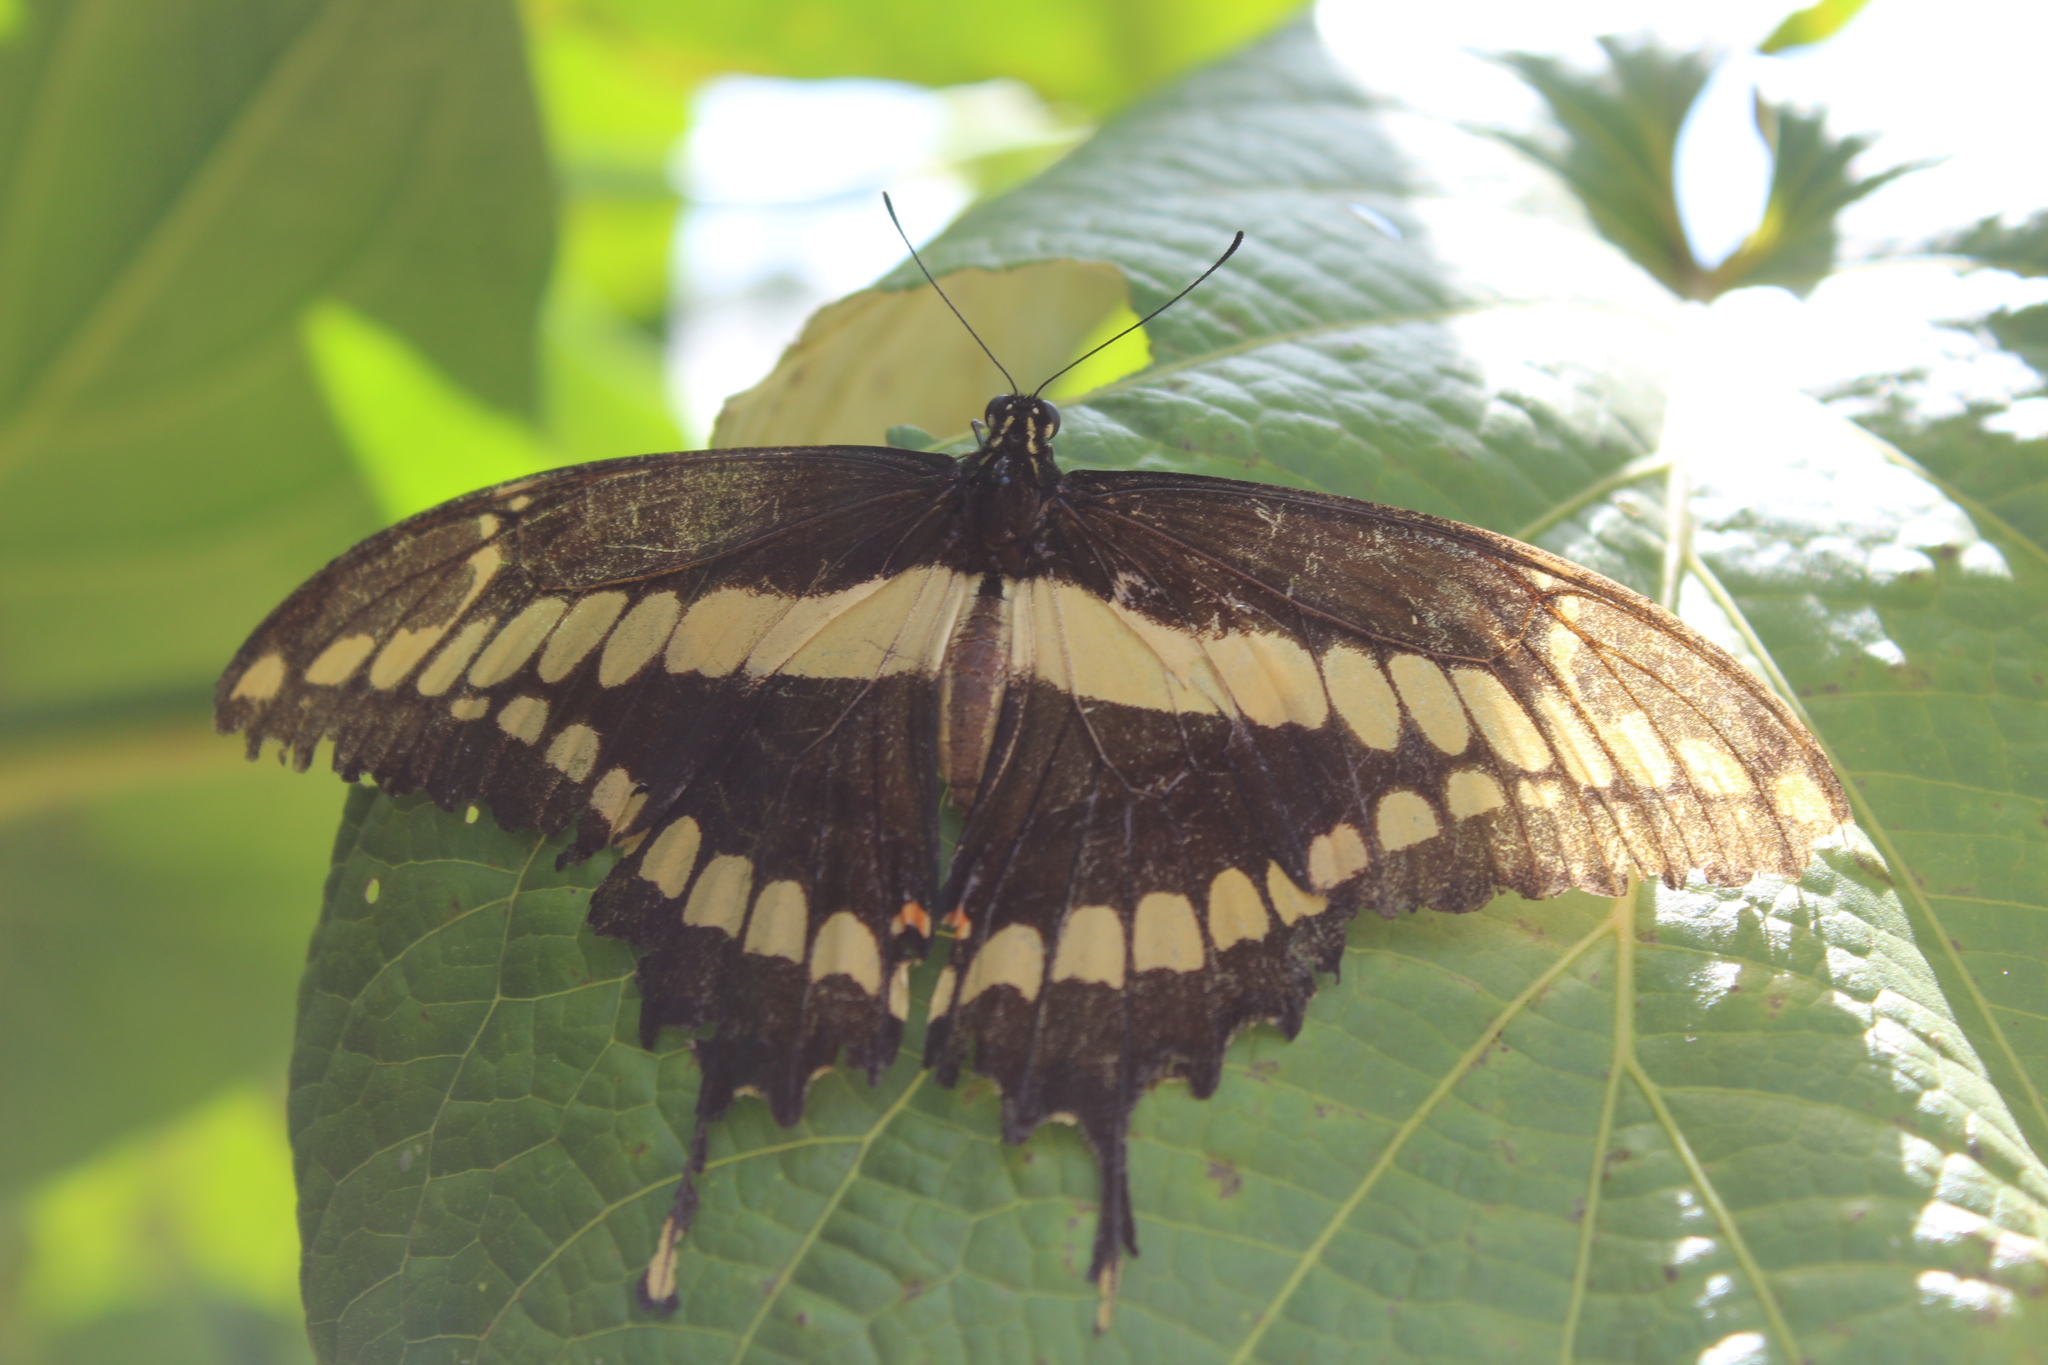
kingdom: Animalia
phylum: Arthropoda
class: Insecta
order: Lepidoptera
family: Papilionidae
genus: Papilio
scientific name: Papilio thoas
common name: King swallowtail
